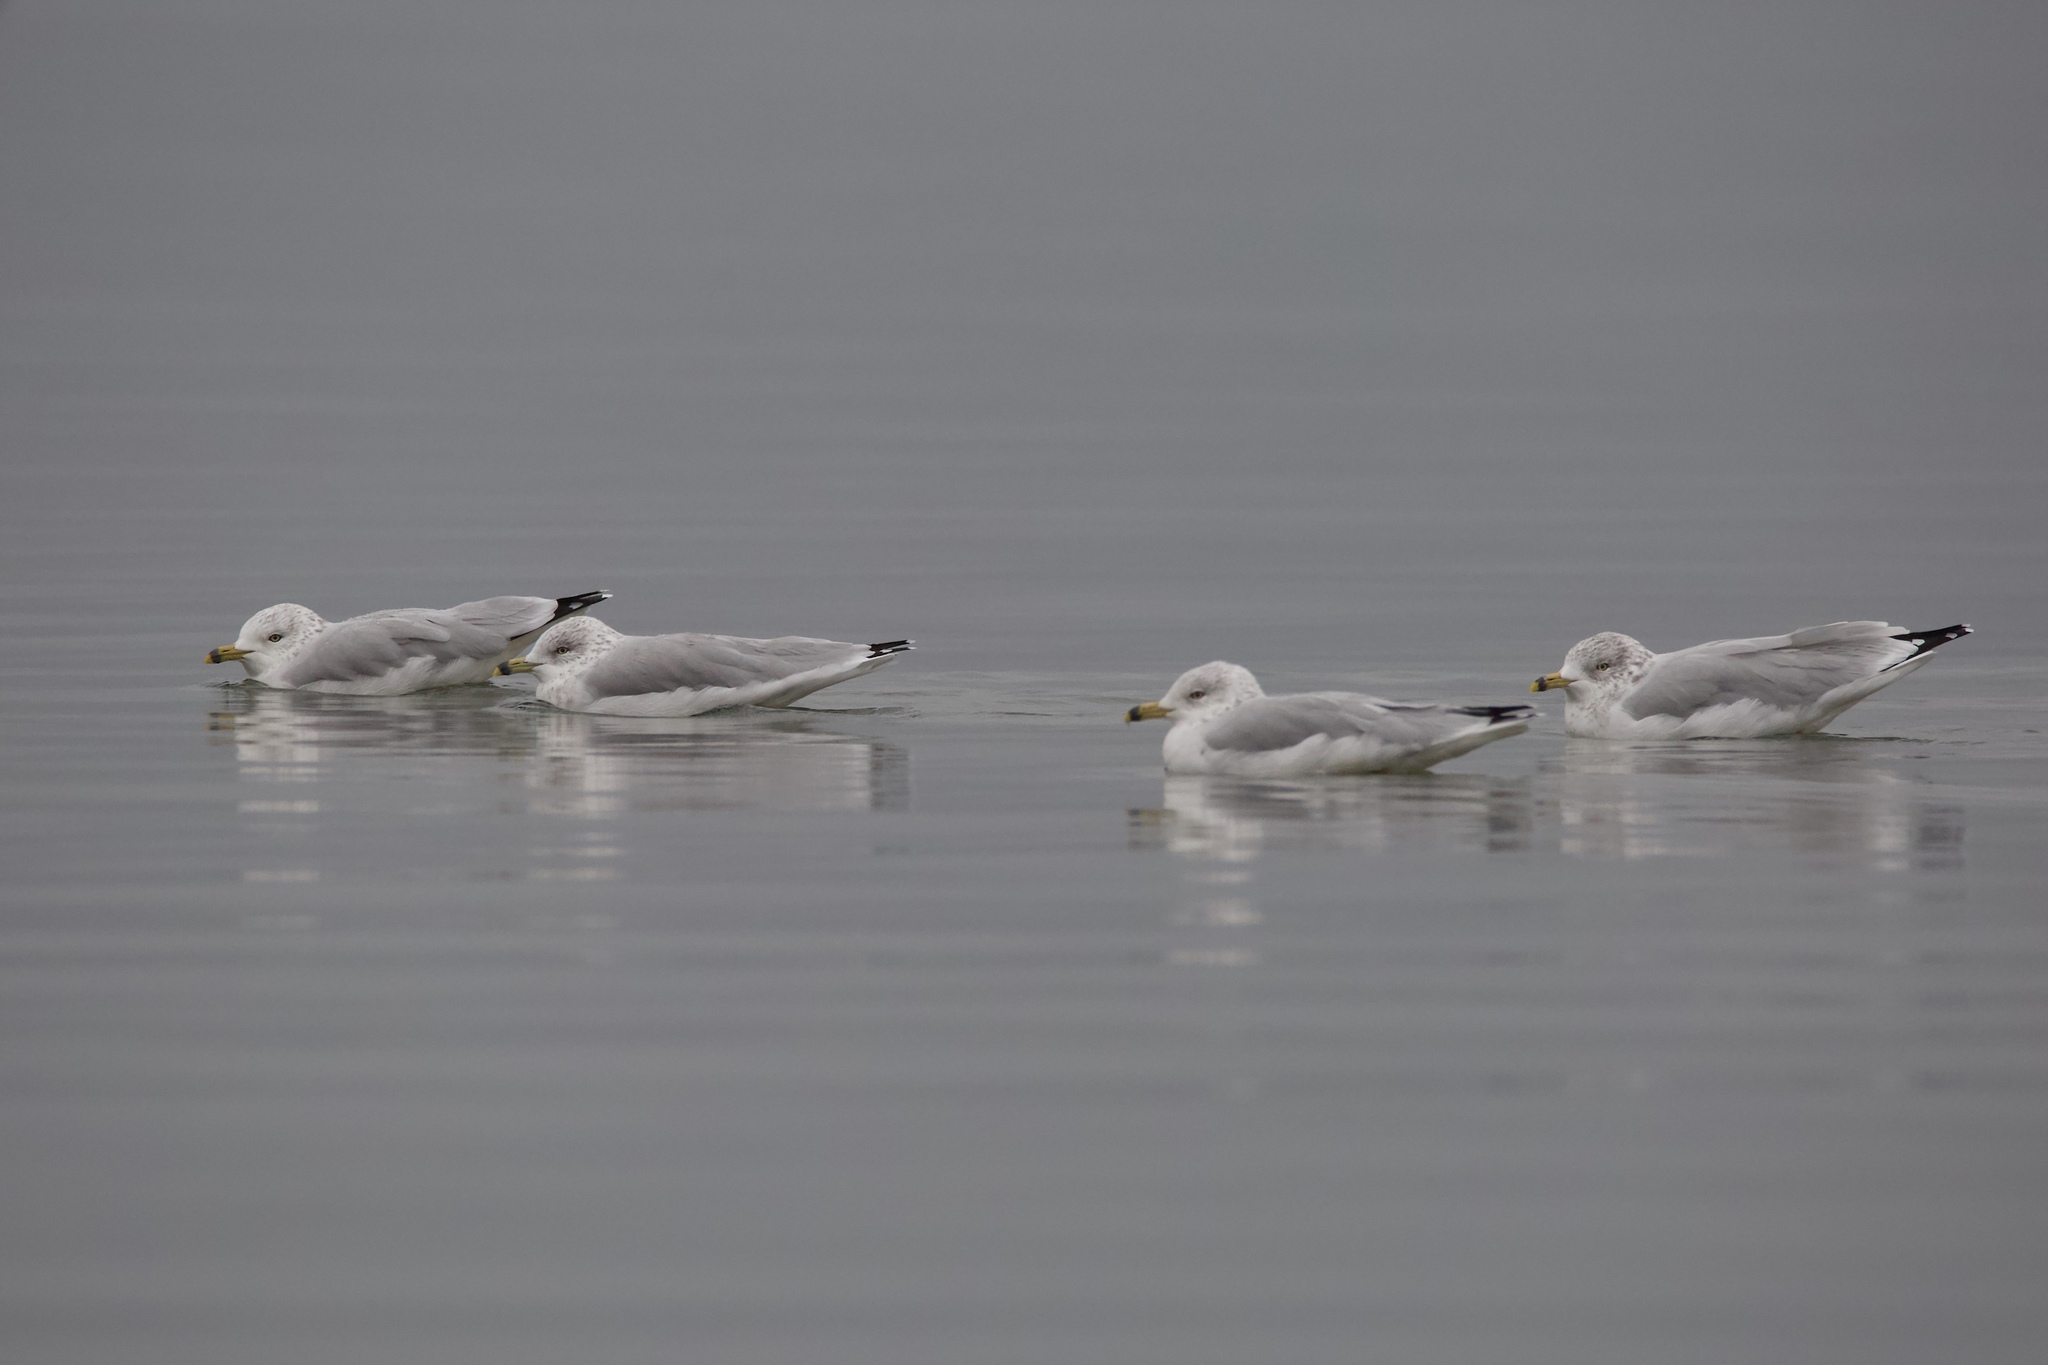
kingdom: Animalia
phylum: Chordata
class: Aves
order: Charadriiformes
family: Laridae
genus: Larus
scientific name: Larus delawarensis
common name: Ring-billed gull
